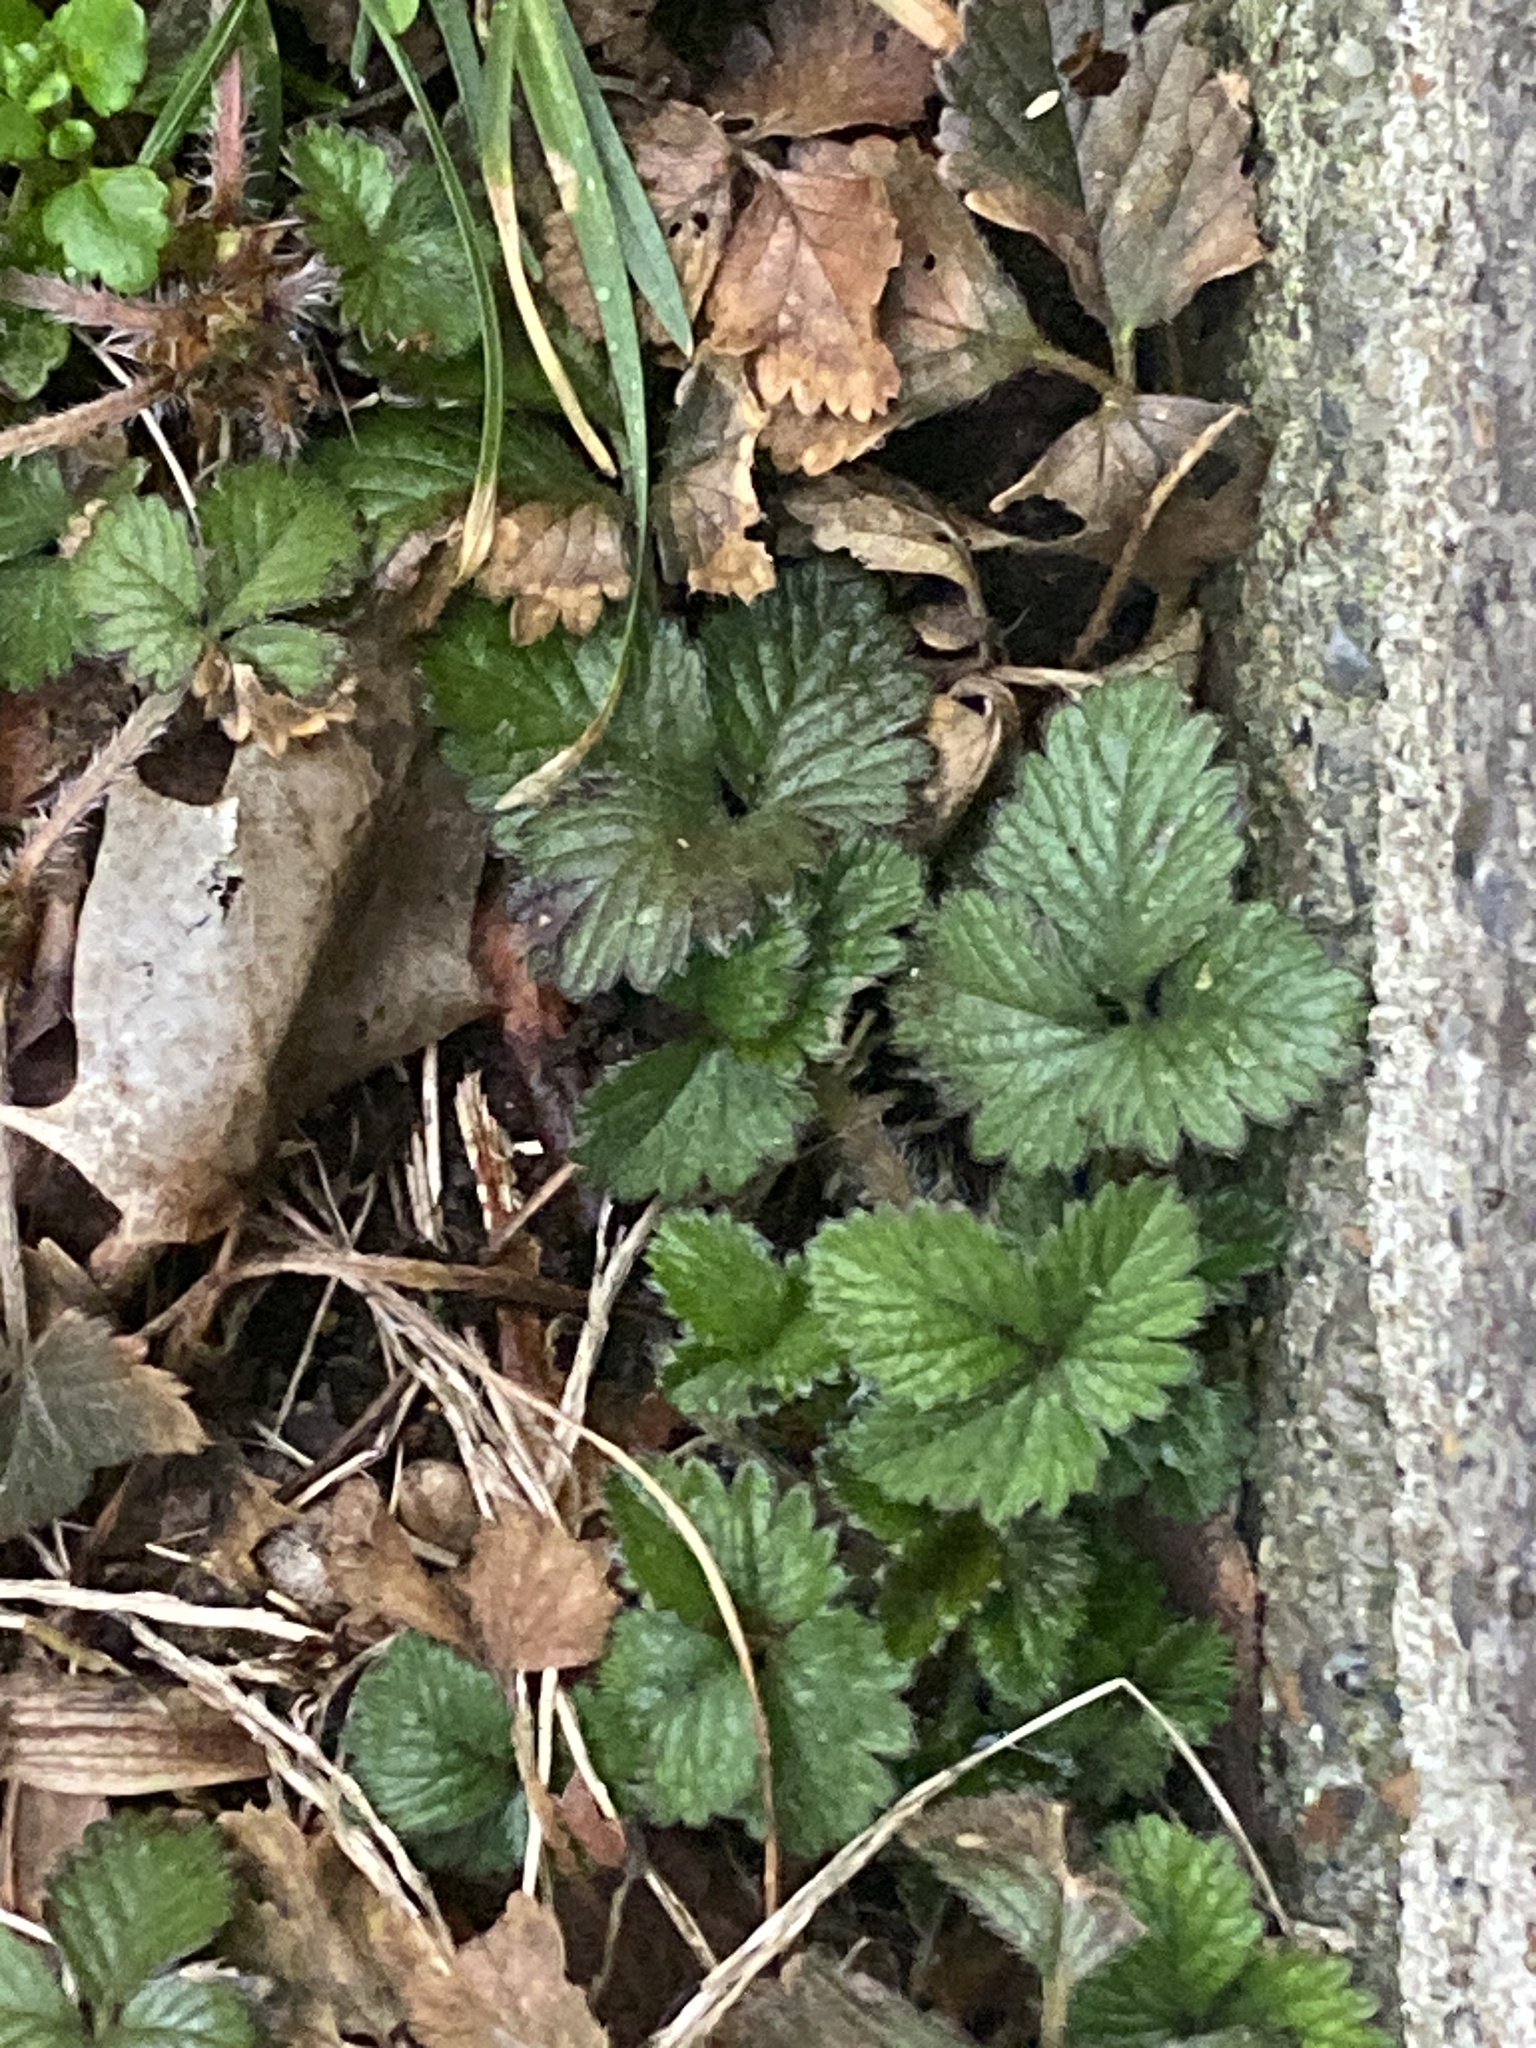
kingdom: Plantae
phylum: Tracheophyta
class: Magnoliopsida
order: Rosales
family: Rosaceae
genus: Potentilla
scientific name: Potentilla indica
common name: Yellow-flowered strawberry
